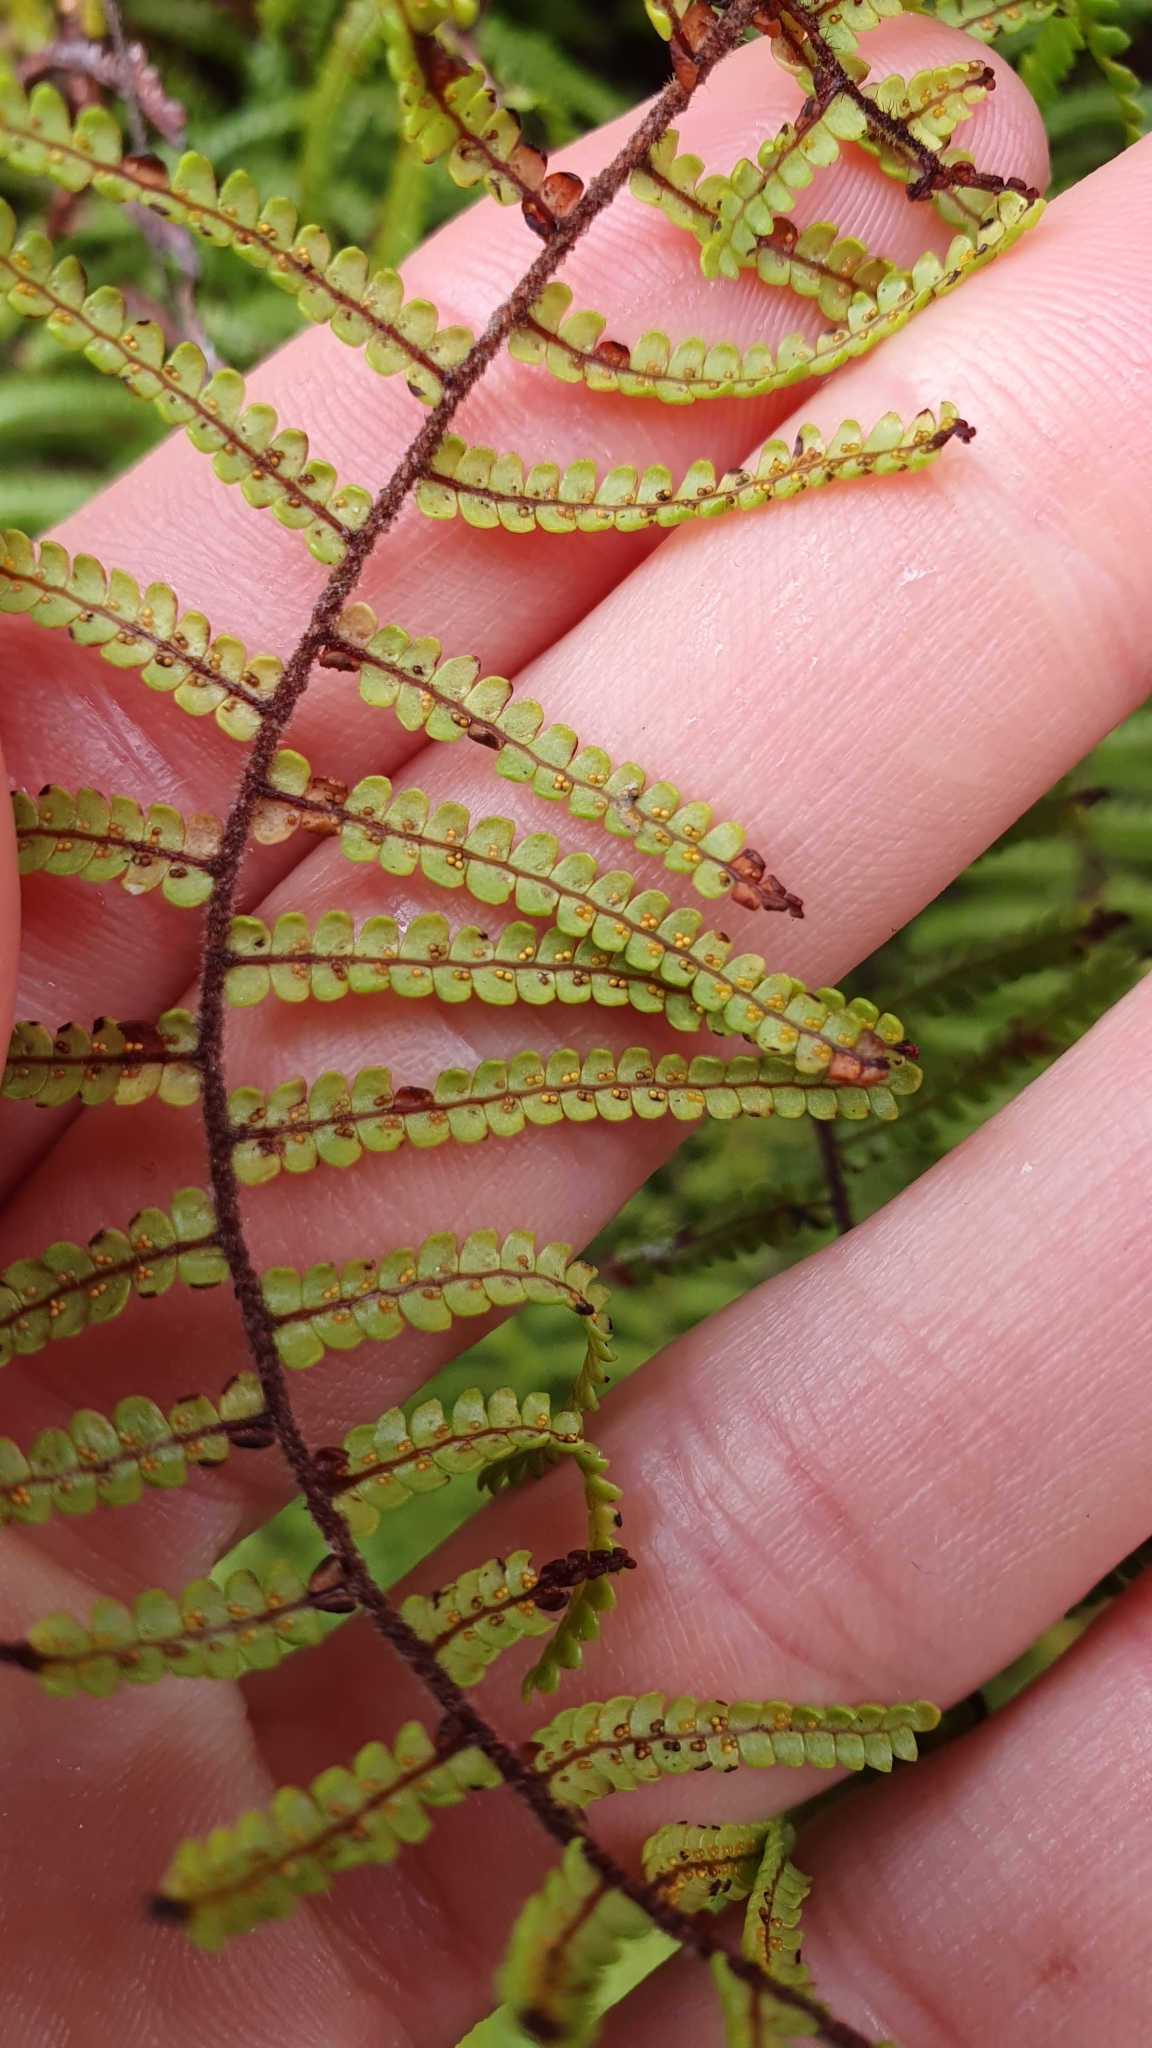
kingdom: Plantae
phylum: Tracheophyta
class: Polypodiopsida
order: Gleicheniales
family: Gleicheniaceae
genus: Gleichenia
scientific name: Gleichenia microphylla
